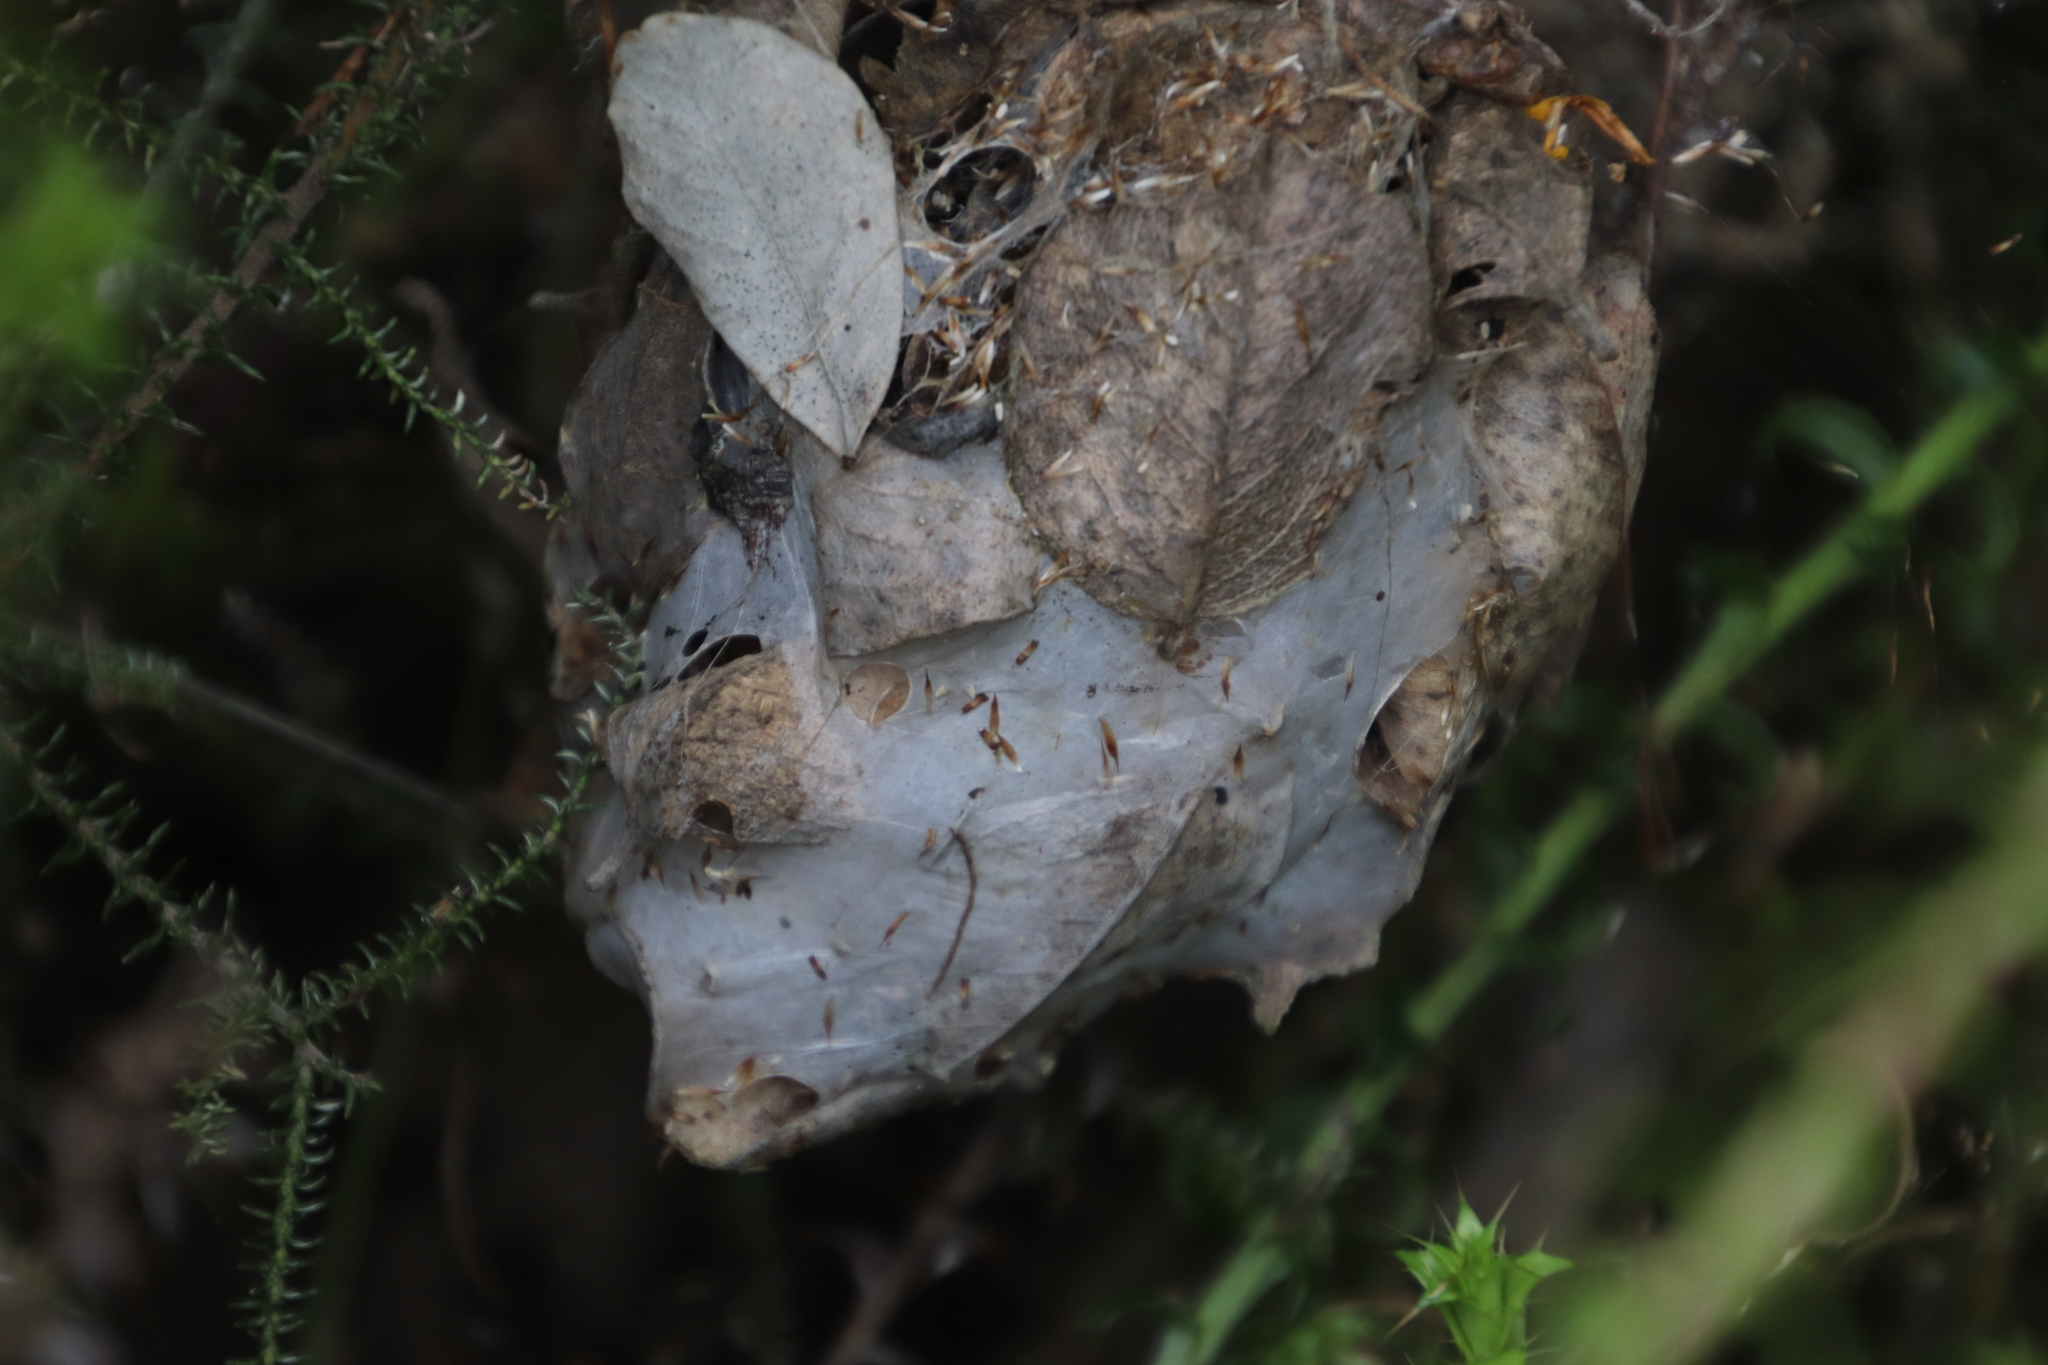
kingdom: Animalia
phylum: Arthropoda
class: Arachnida
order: Araneae
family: Sparassidae
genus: Palystes
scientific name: Palystes superciliosus
